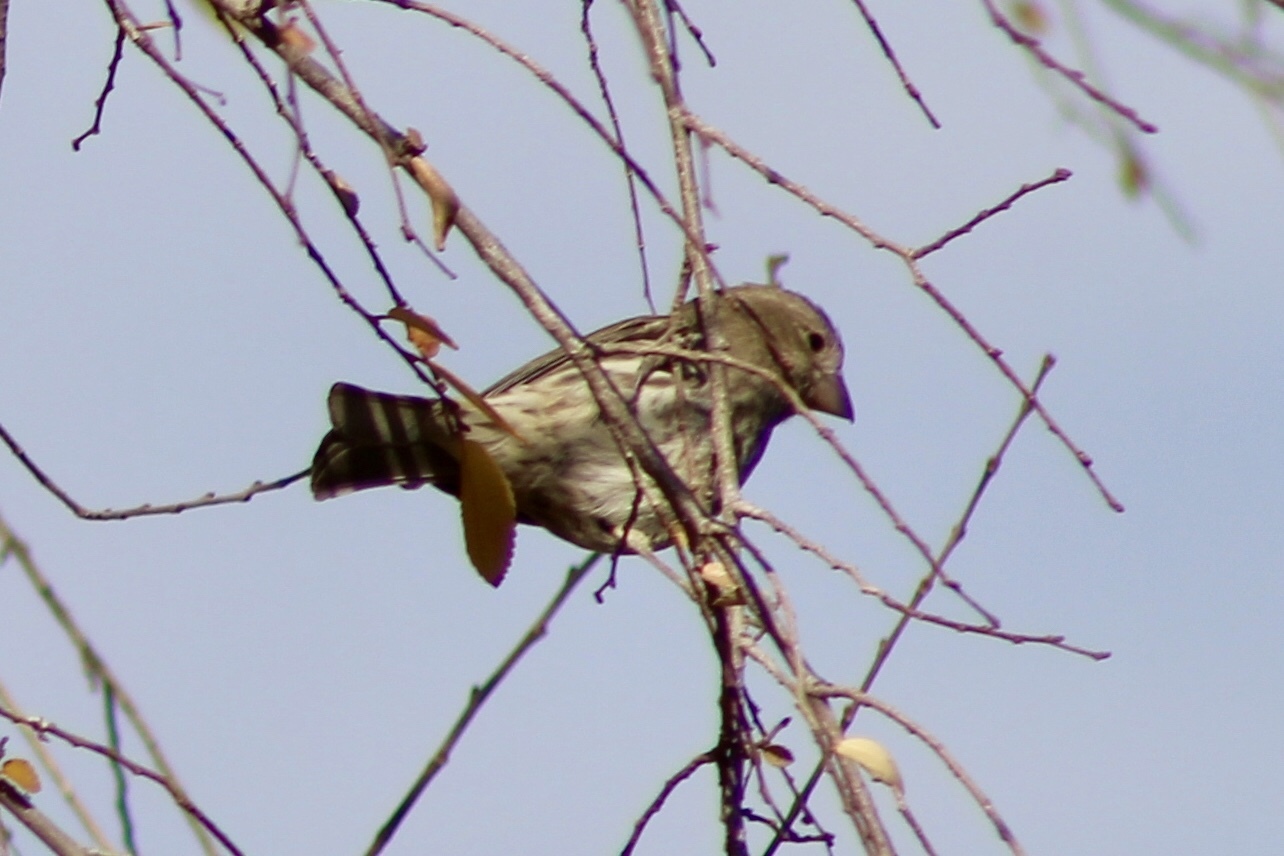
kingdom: Animalia
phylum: Chordata
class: Aves
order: Passeriformes
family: Fringillidae
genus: Haemorhous
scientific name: Haemorhous mexicanus
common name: House finch
